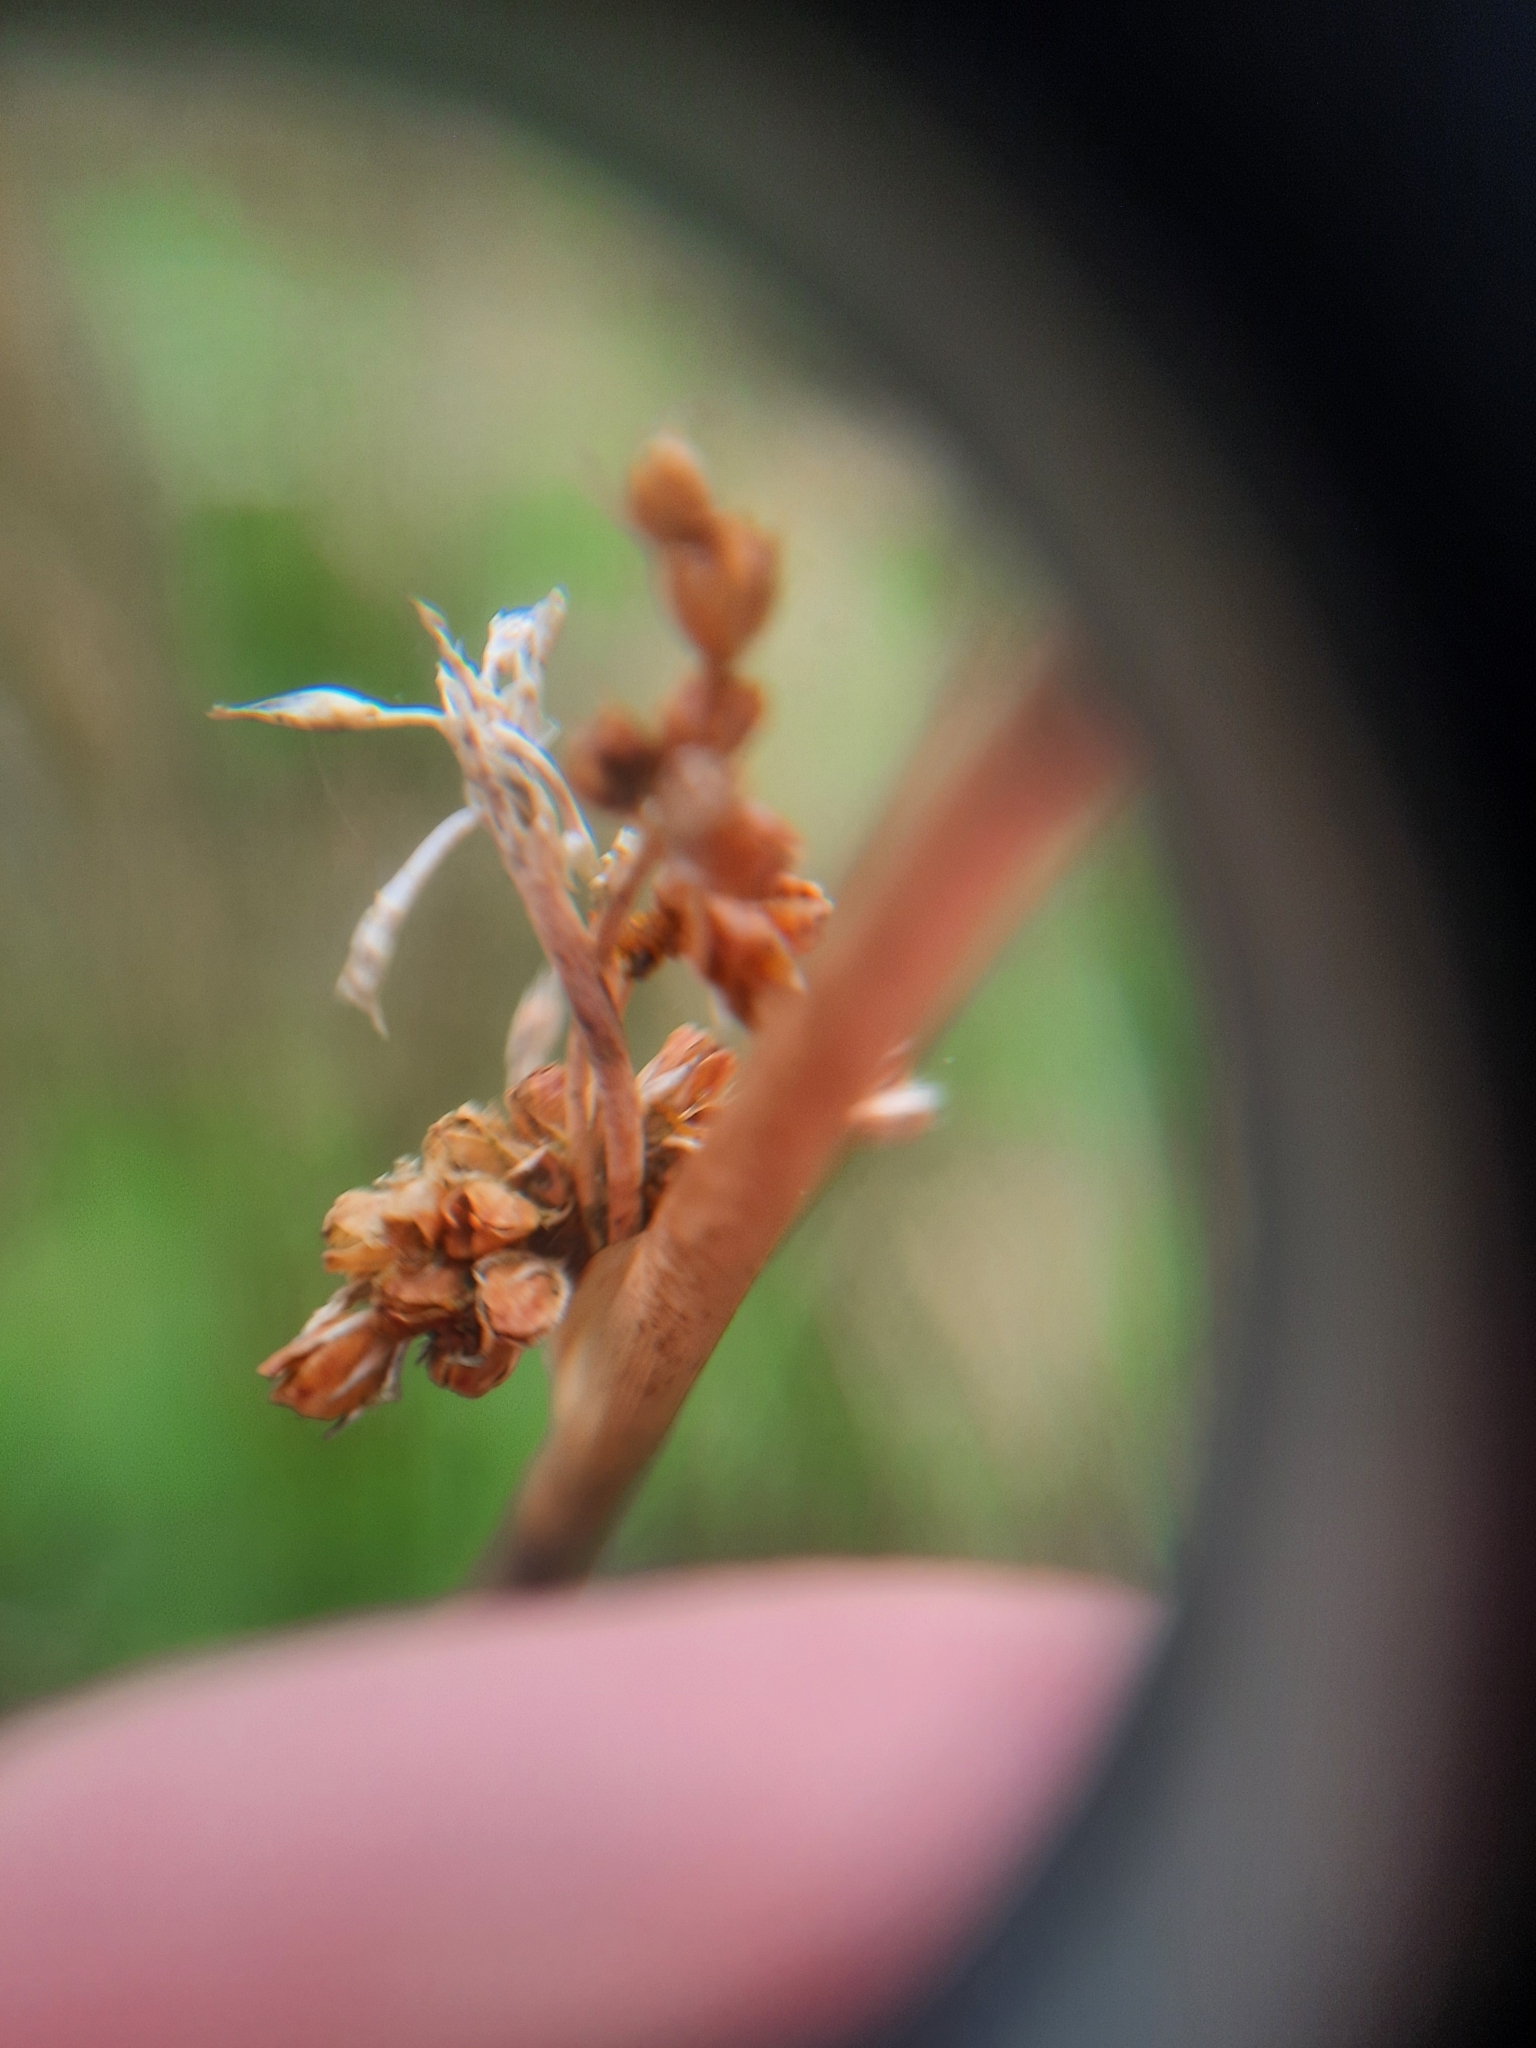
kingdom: Plantae
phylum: Tracheophyta
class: Liliopsida
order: Poales
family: Juncaceae
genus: Juncus
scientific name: Juncus effusus
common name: Soft rush
